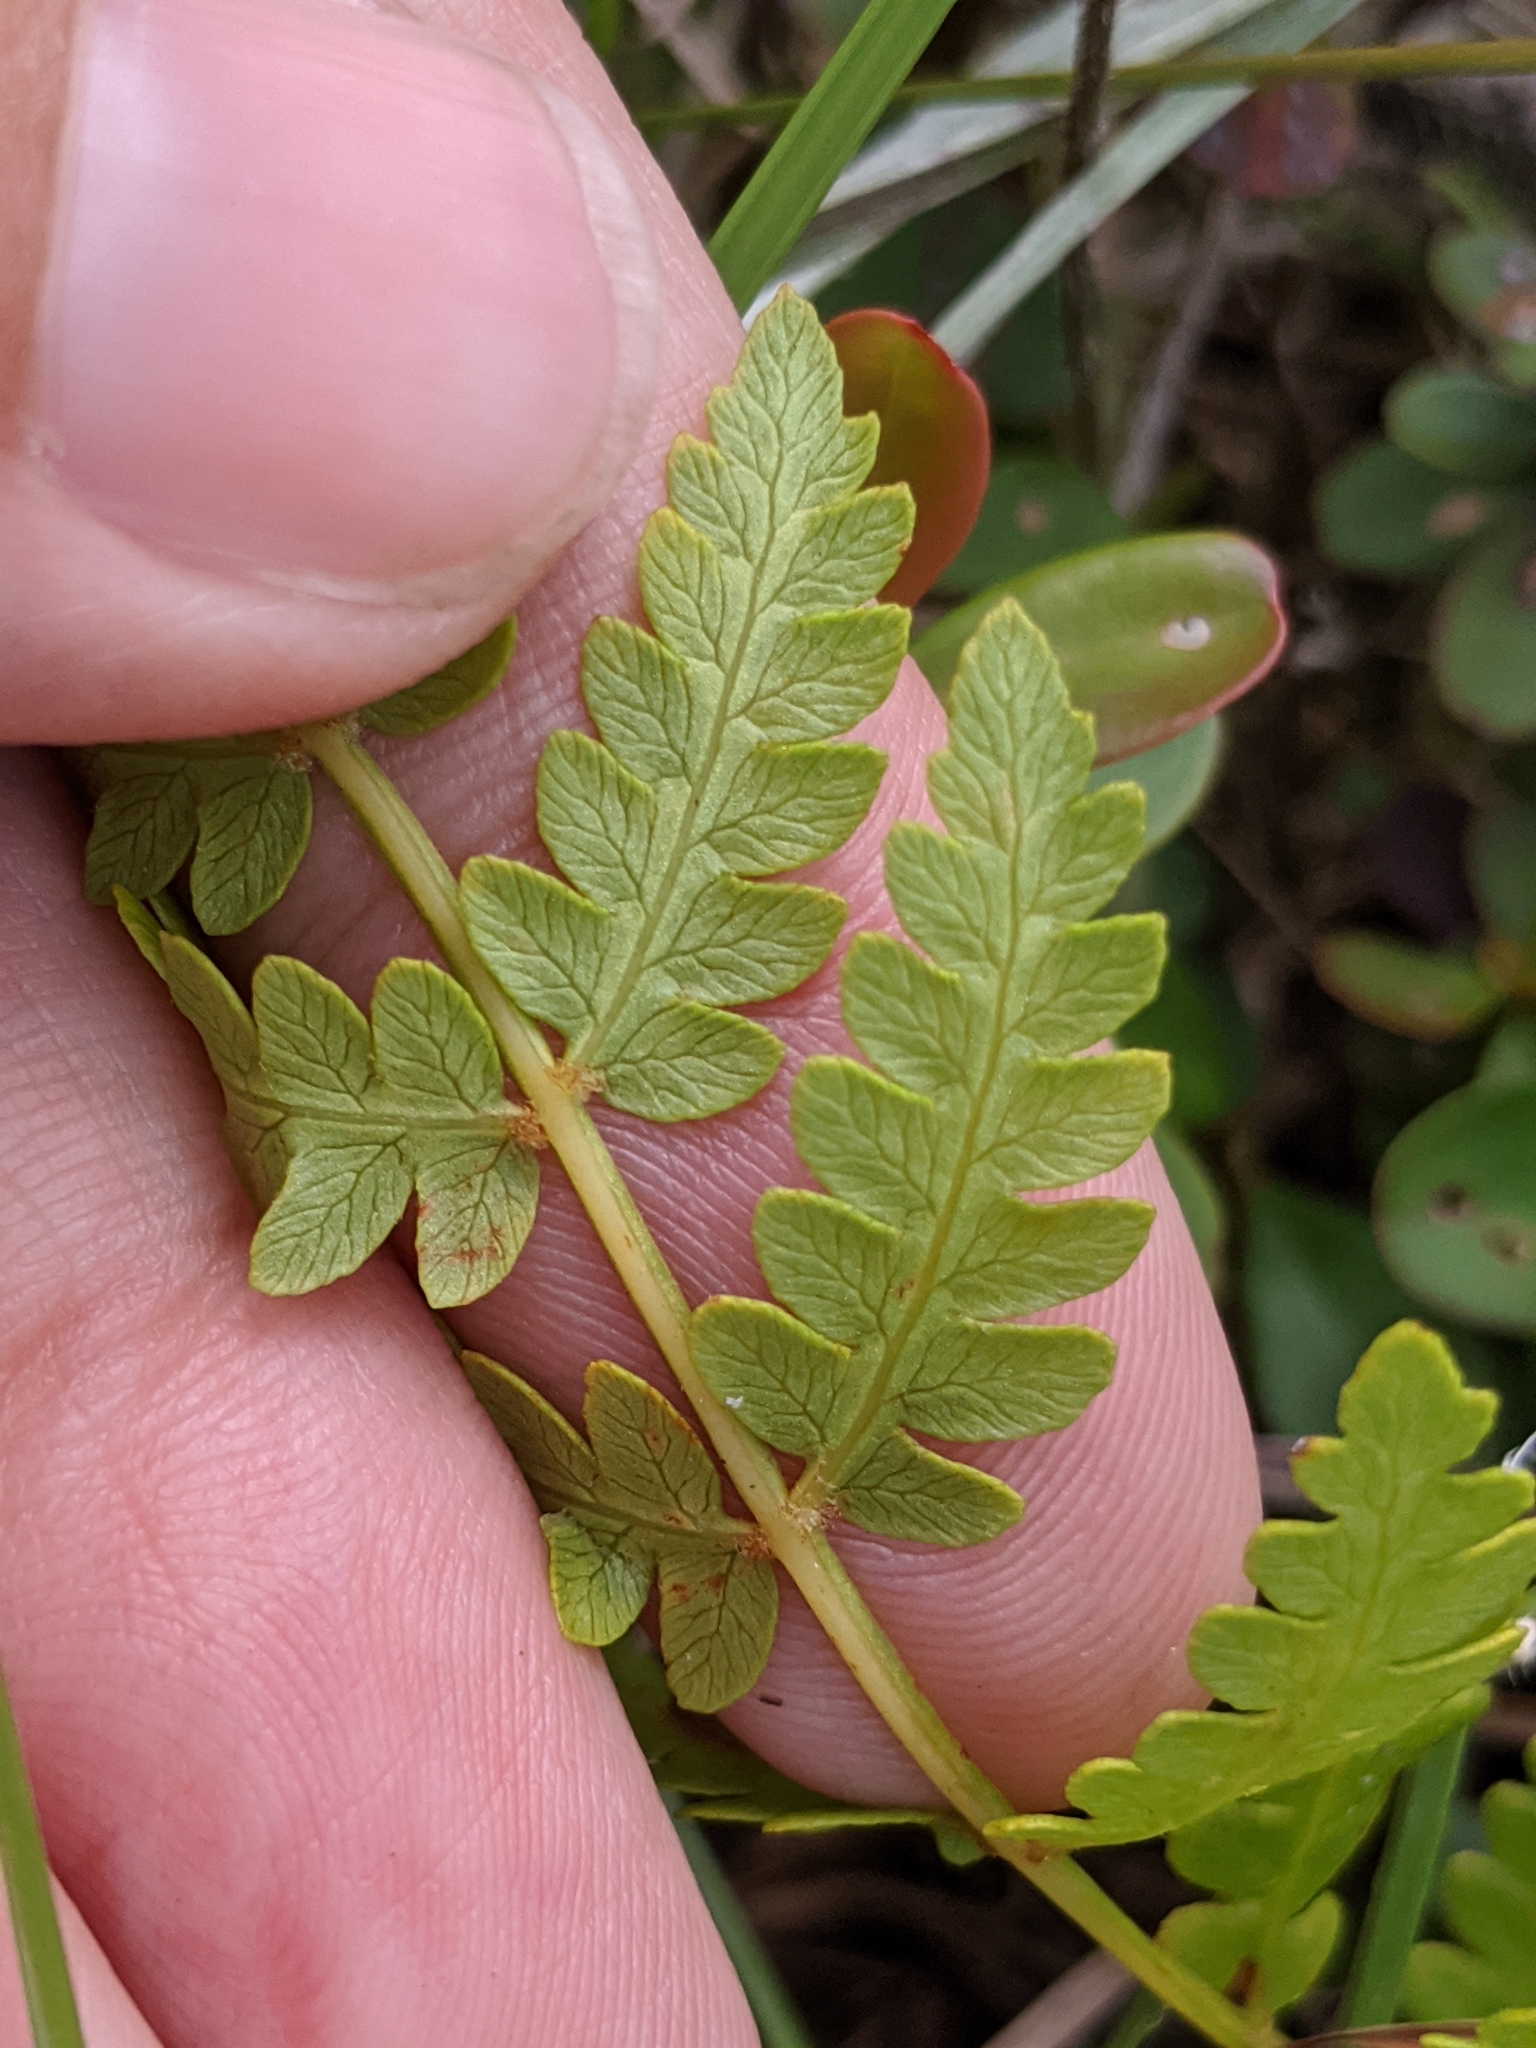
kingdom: Plantae
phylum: Tracheophyta
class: Polypodiopsida
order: Osmundales
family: Osmundaceae
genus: Osmundastrum
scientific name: Osmundastrum cinnamomeum
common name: Cinnamon fern
